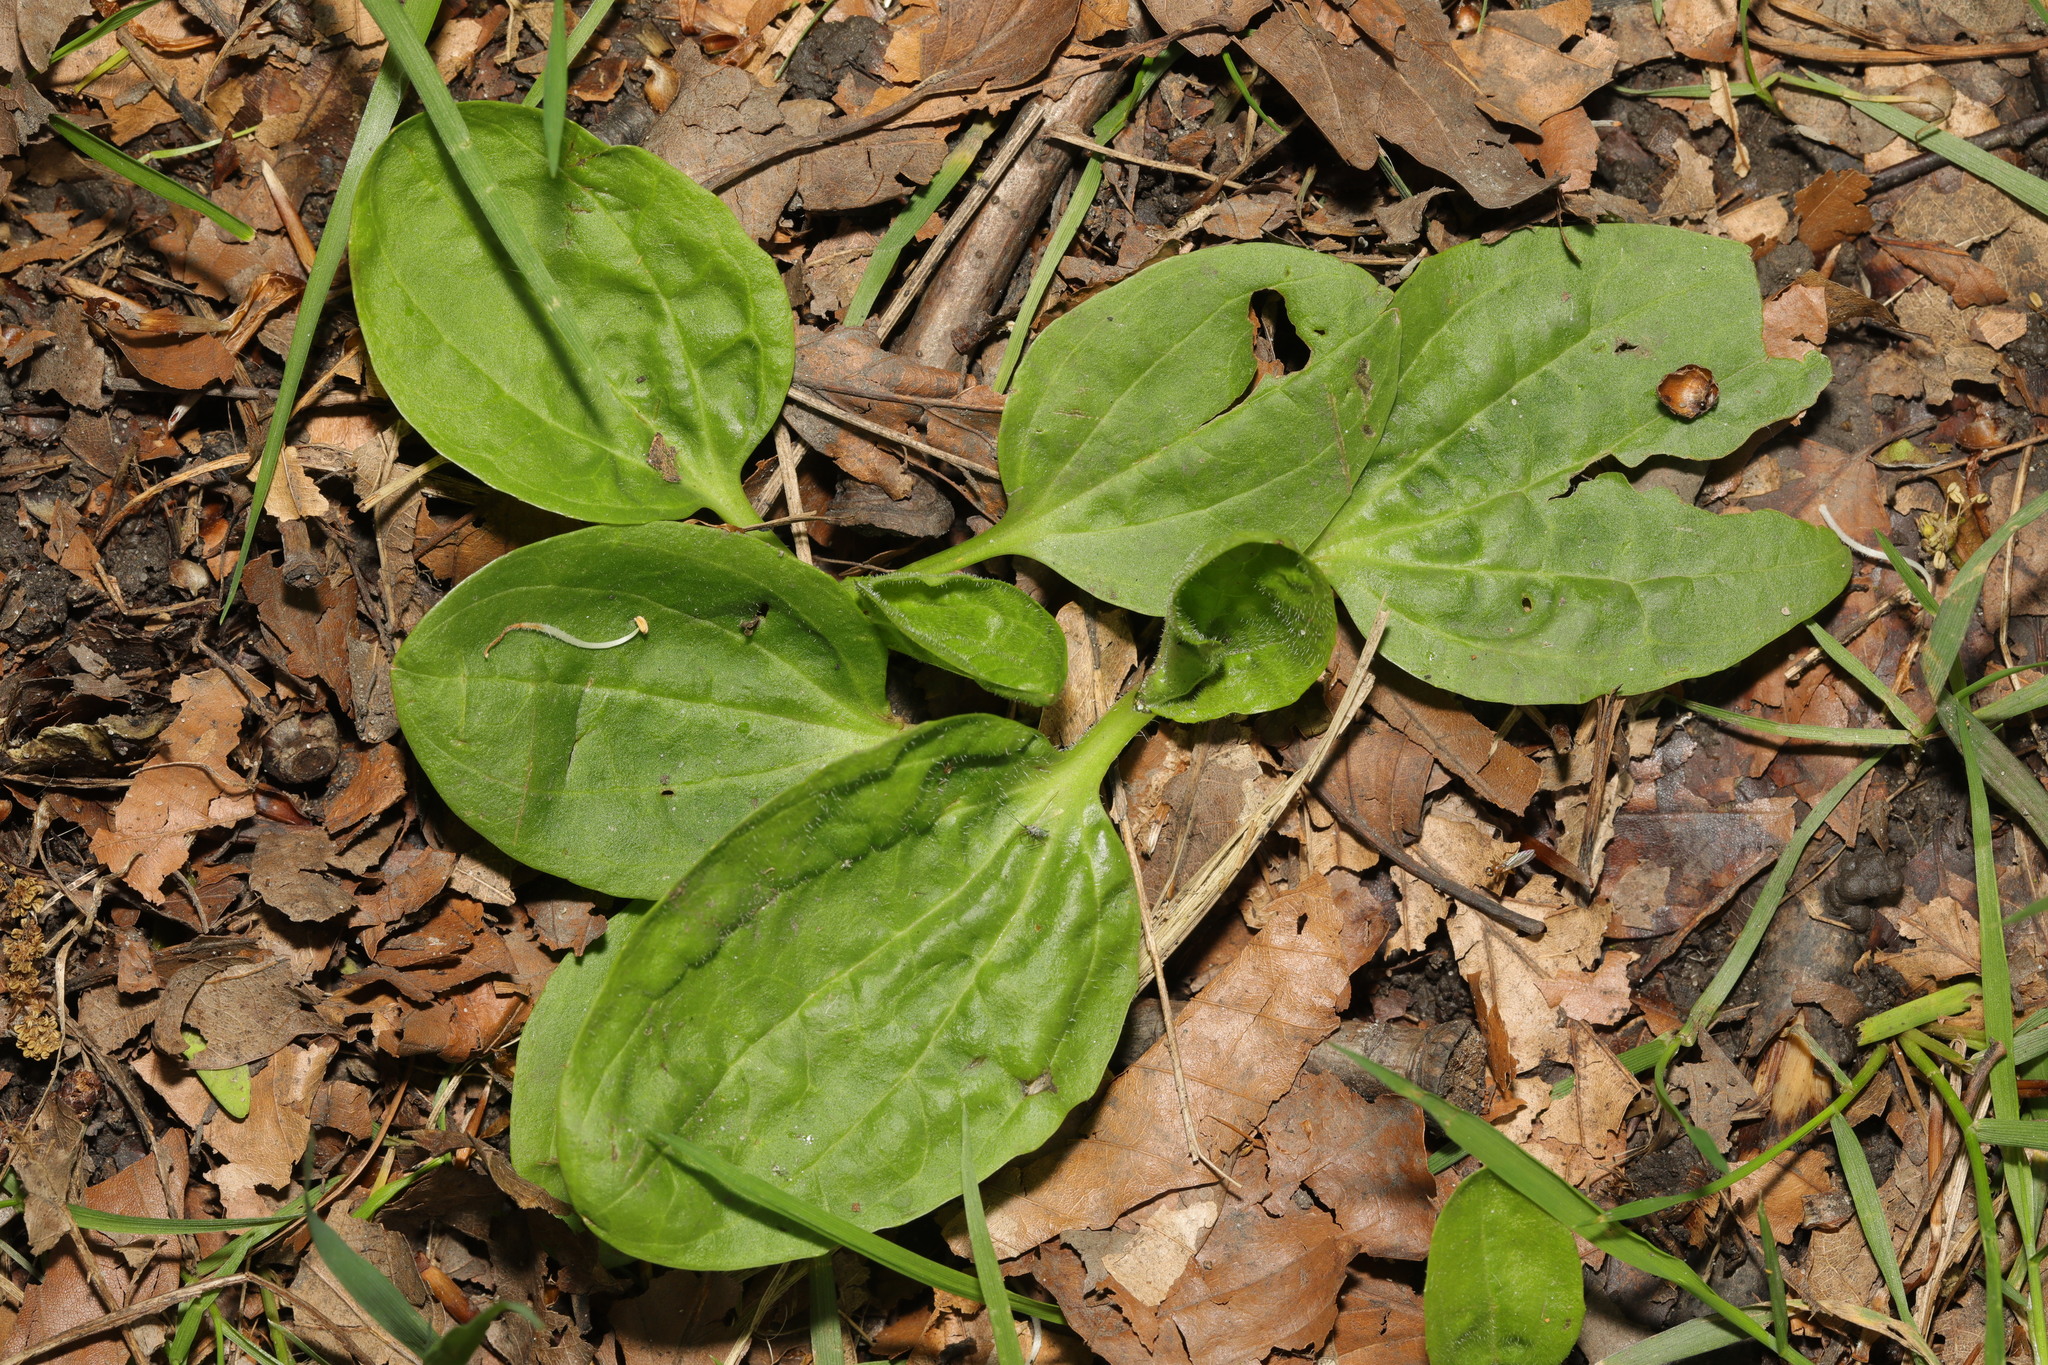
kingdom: Plantae
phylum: Tracheophyta
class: Magnoliopsida
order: Lamiales
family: Plantaginaceae
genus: Plantago
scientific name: Plantago major
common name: Common plantain
